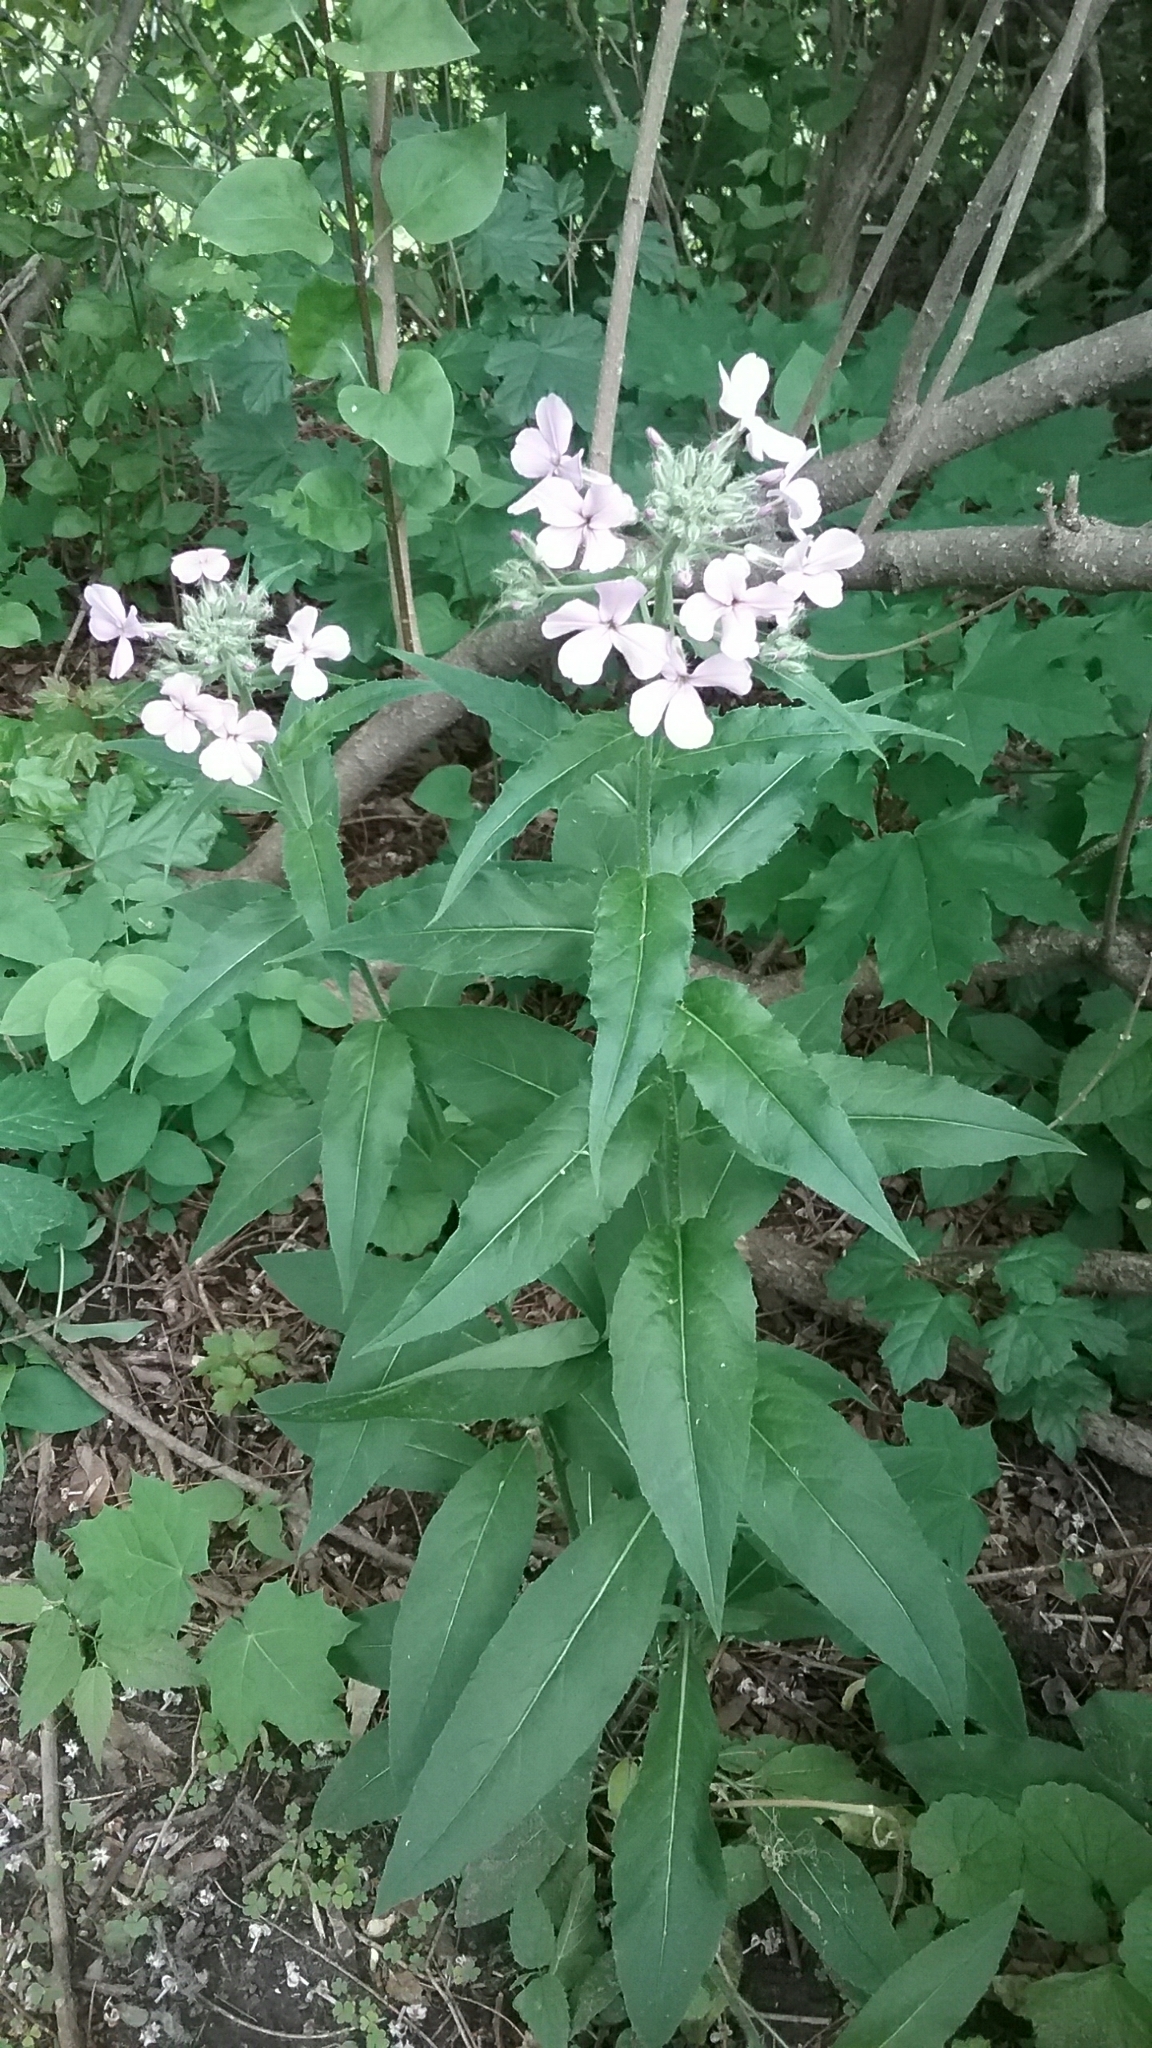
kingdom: Plantae
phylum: Tracheophyta
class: Magnoliopsida
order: Brassicales
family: Brassicaceae
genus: Hesperis
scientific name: Hesperis matronalis
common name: Dame's-violet
